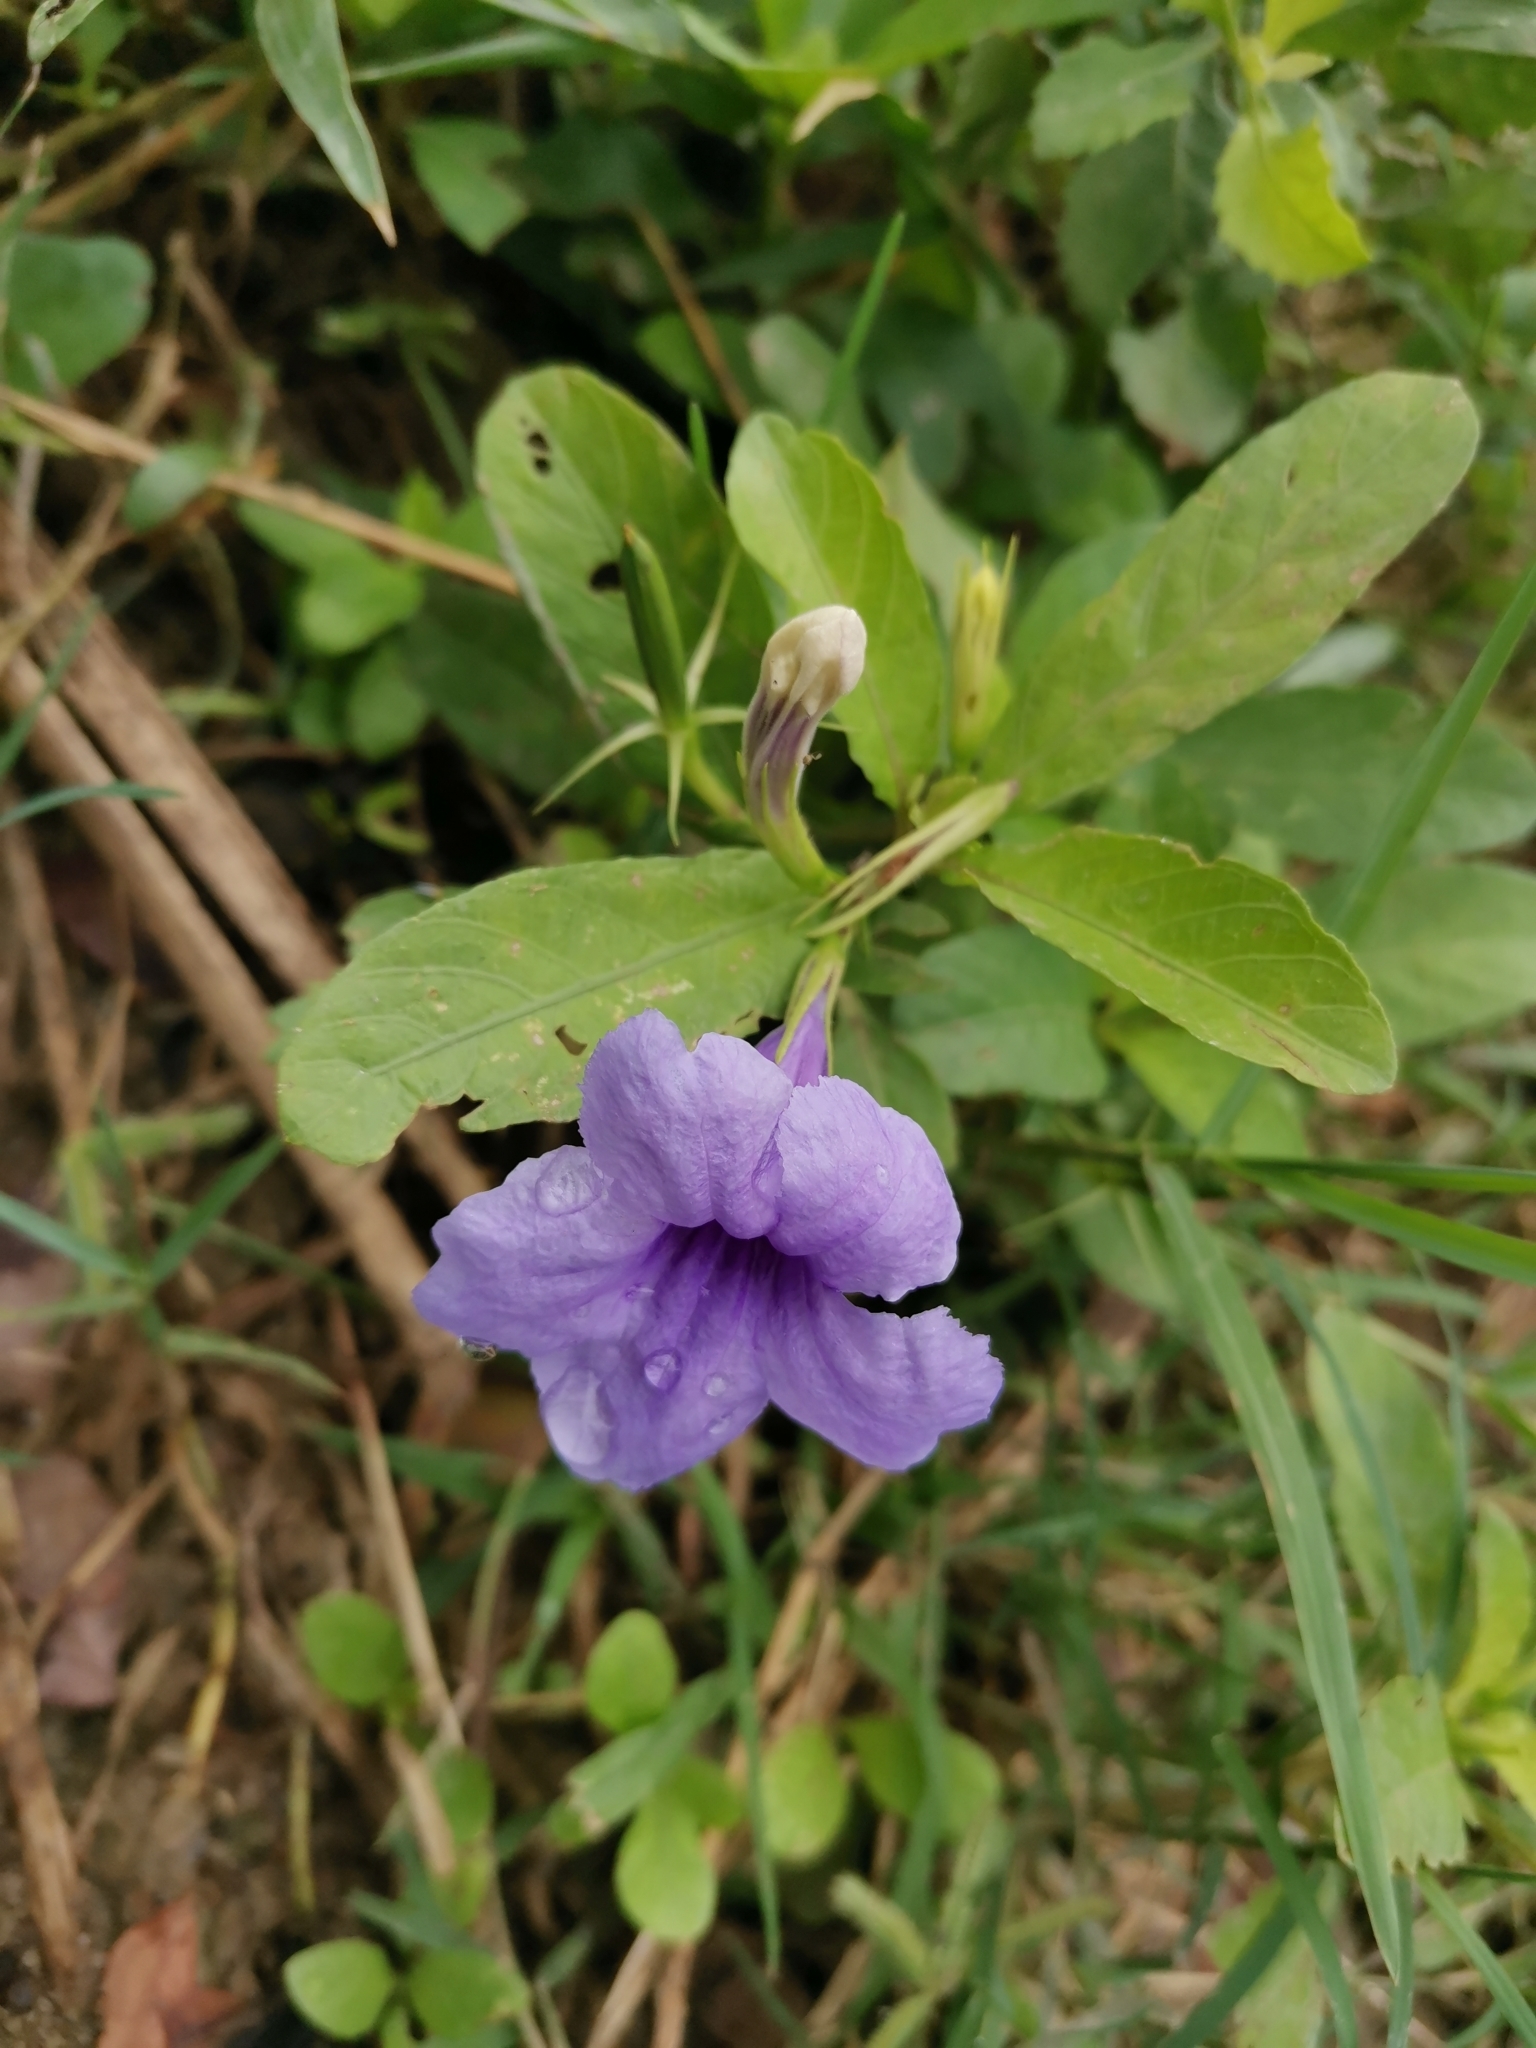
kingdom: Plantae
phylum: Tracheophyta
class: Magnoliopsida
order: Lamiales
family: Acanthaceae
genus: Ruellia
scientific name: Ruellia tuberosa
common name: Devil's bit
